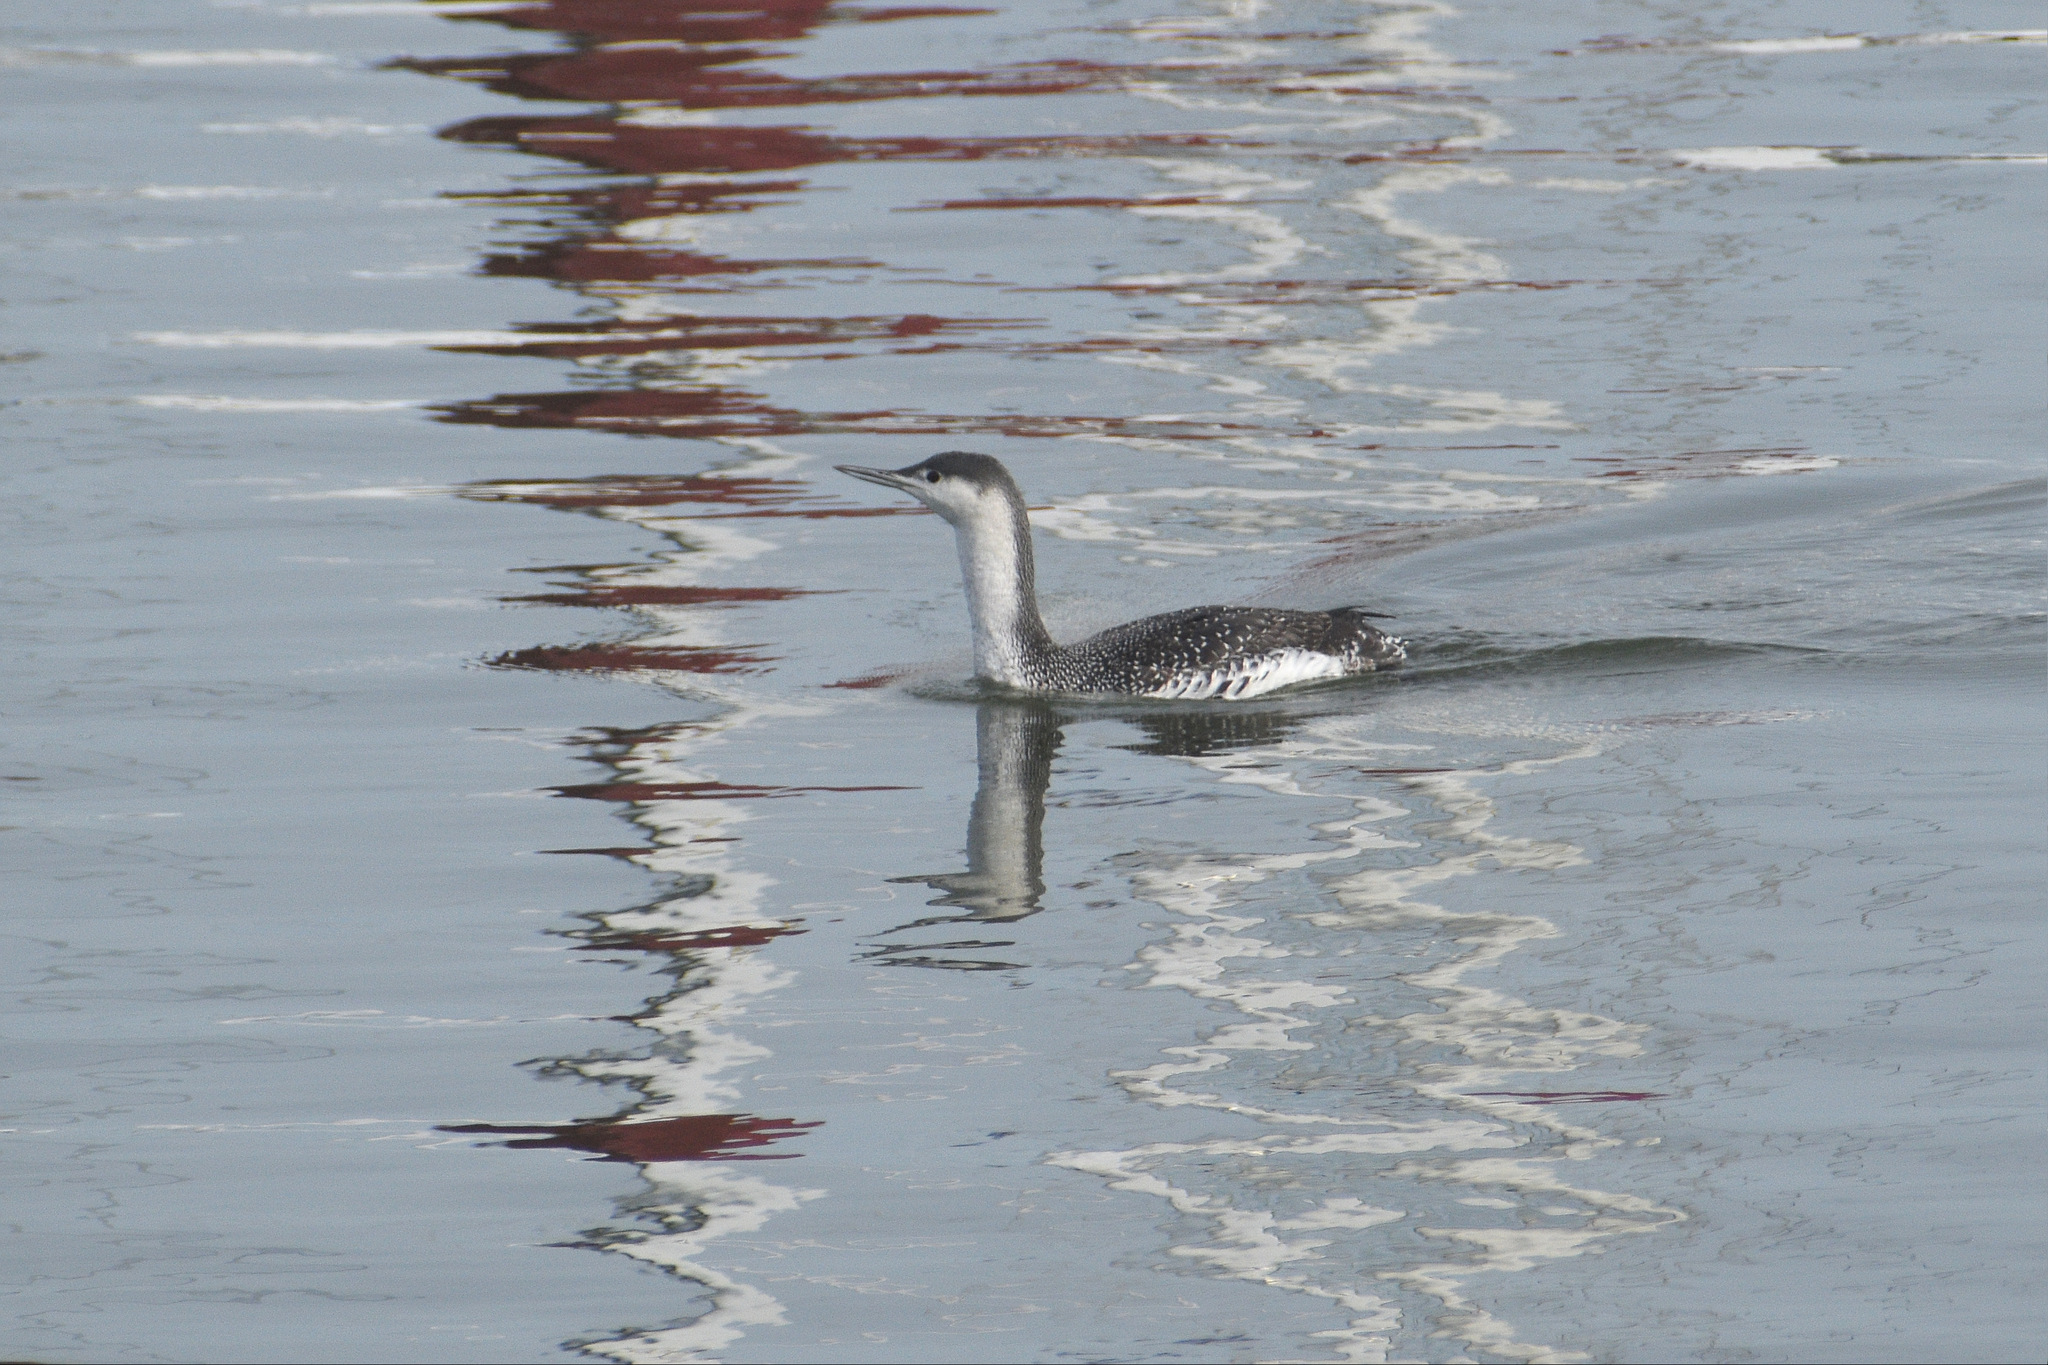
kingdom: Animalia
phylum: Chordata
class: Aves
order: Gaviiformes
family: Gaviidae
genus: Gavia
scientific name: Gavia stellata
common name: Red-throated loon
